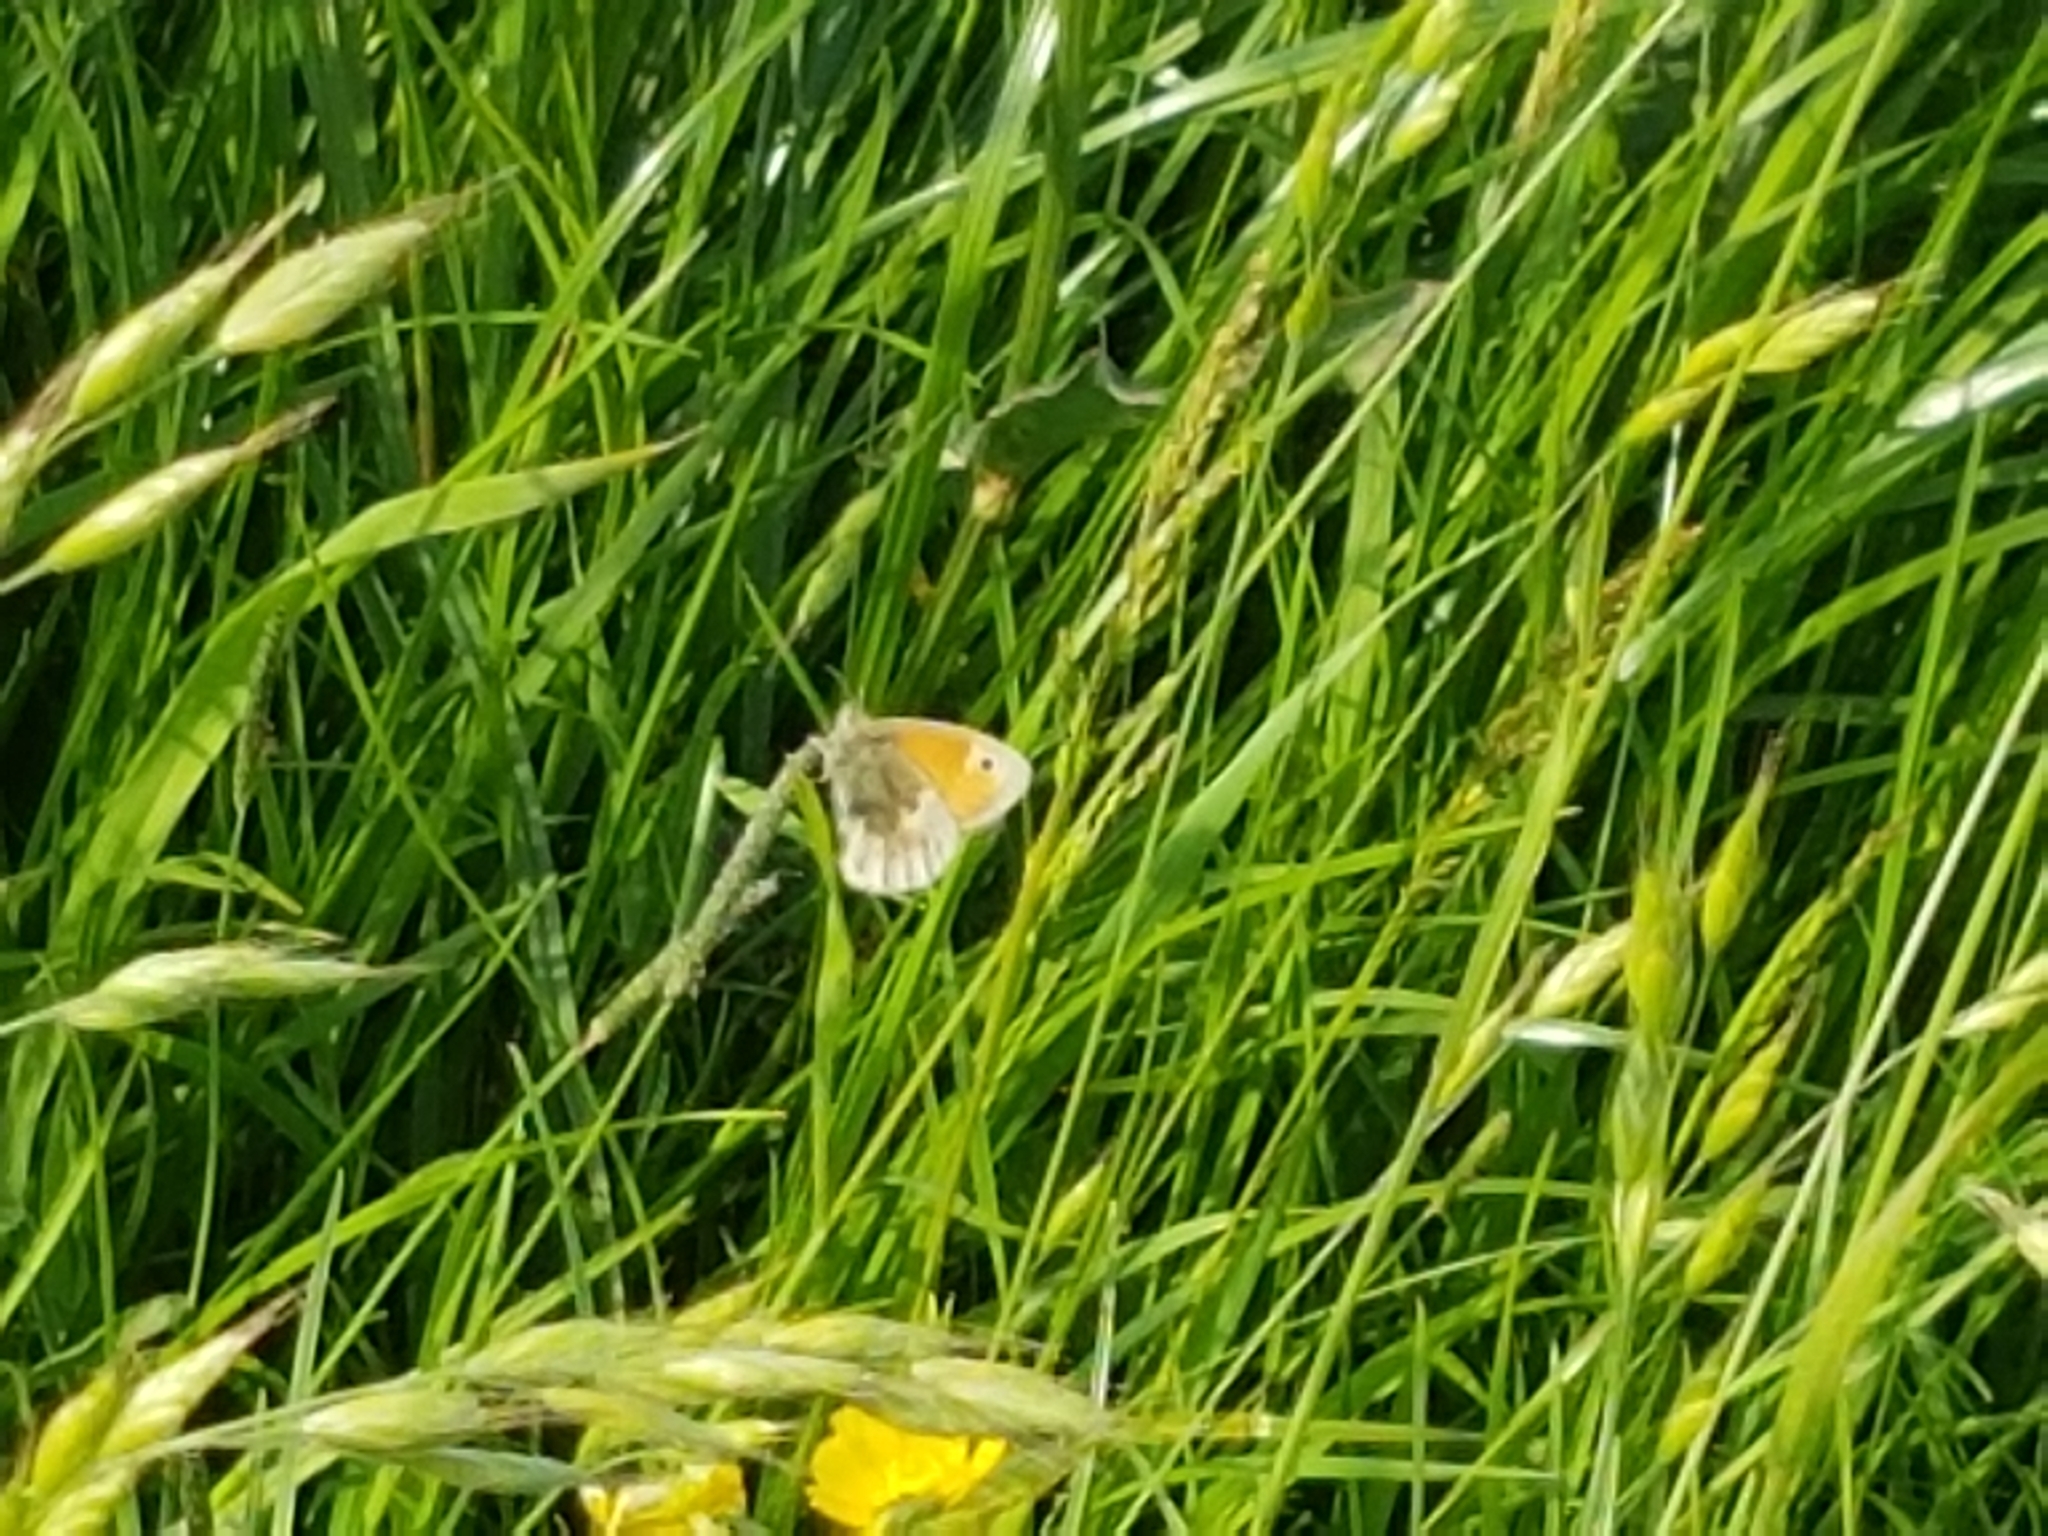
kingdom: Animalia
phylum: Arthropoda
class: Insecta
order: Lepidoptera
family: Nymphalidae
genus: Coenonympha
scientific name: Coenonympha pamphilus
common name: Small heath
